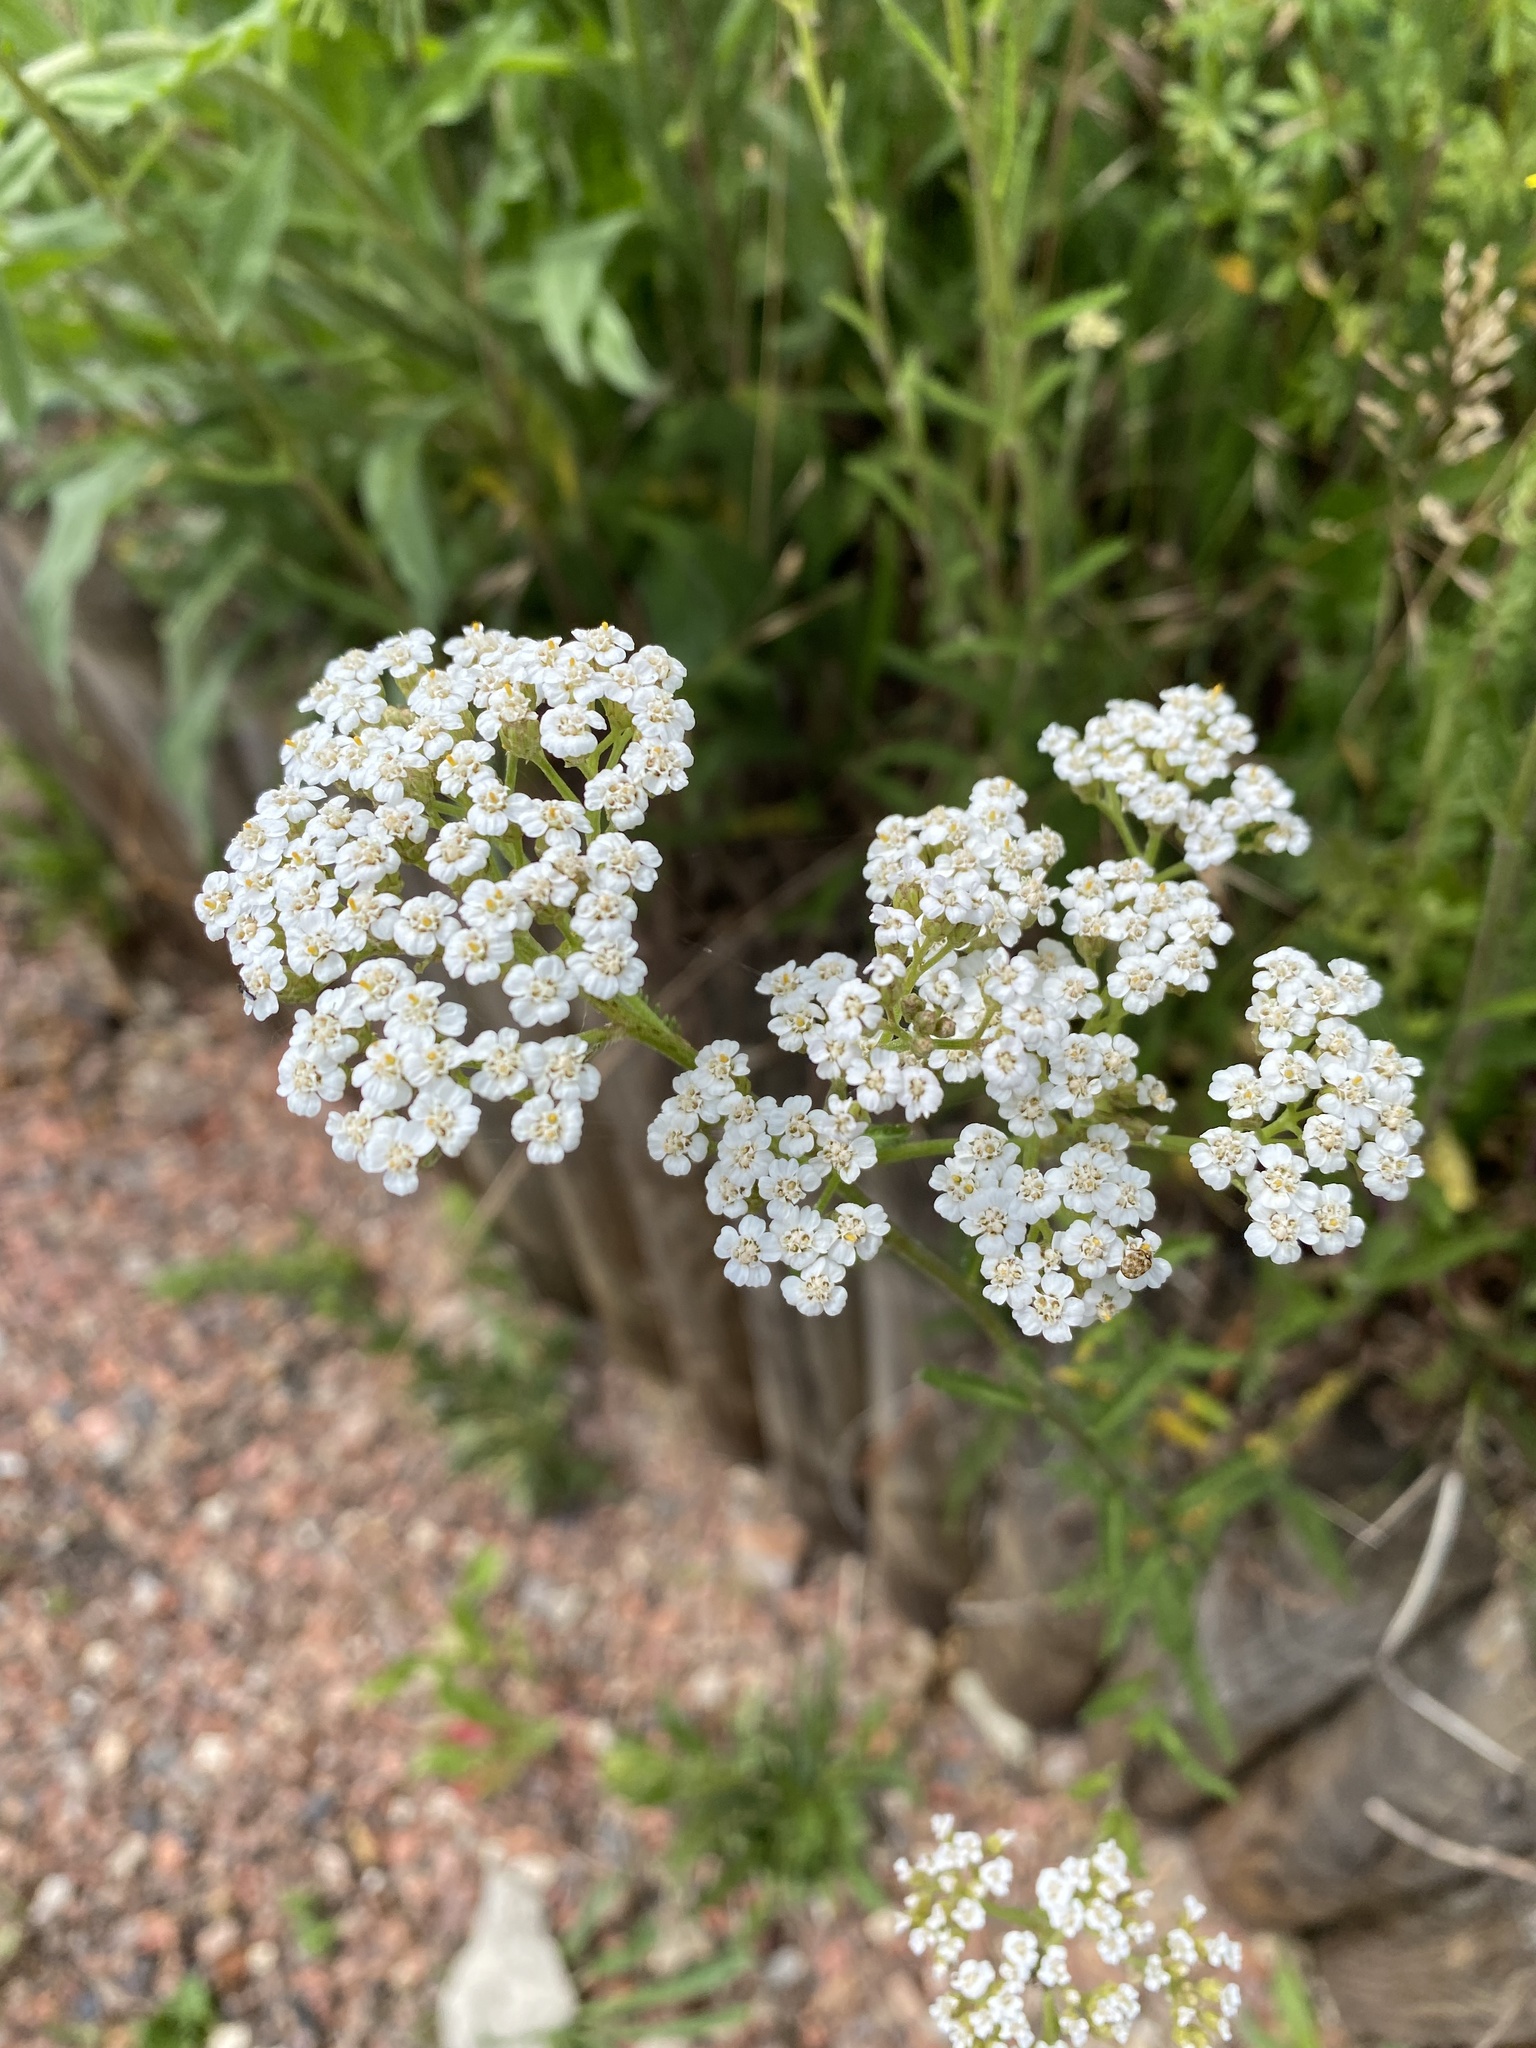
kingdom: Plantae
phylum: Tracheophyta
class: Magnoliopsida
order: Asterales
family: Asteraceae
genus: Achillea
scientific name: Achillea millefolium
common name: Yarrow
